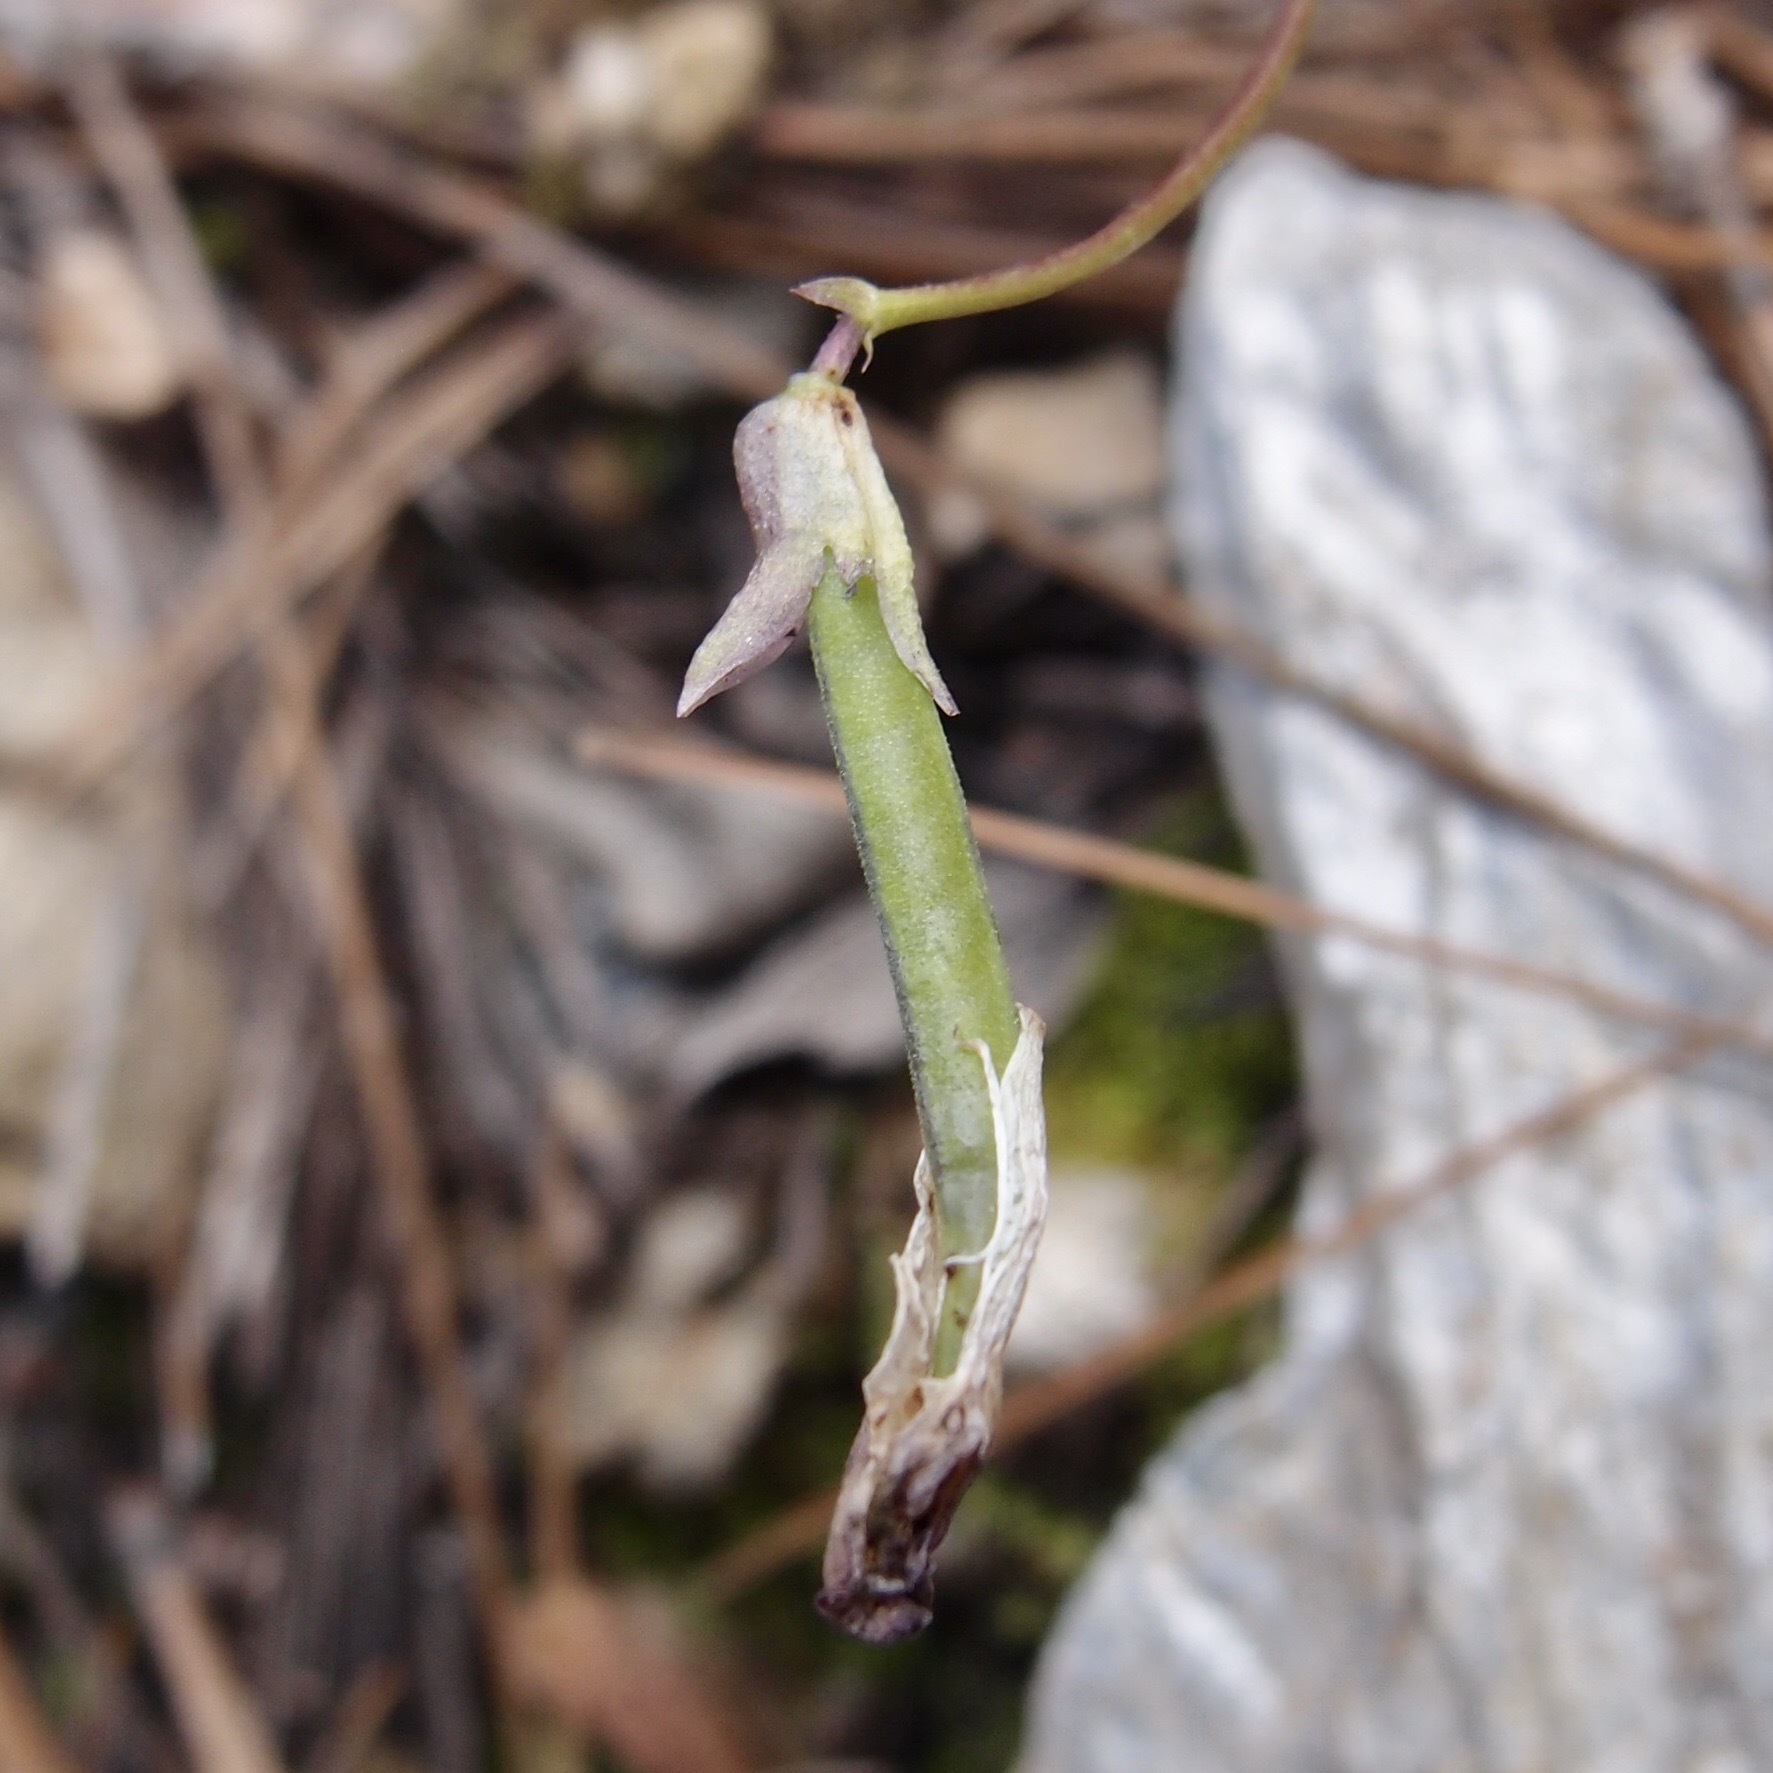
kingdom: Plantae
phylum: Tracheophyta
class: Magnoliopsida
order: Fabales
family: Fabaceae
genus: Phaseolus
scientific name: Phaseolus parvulus
